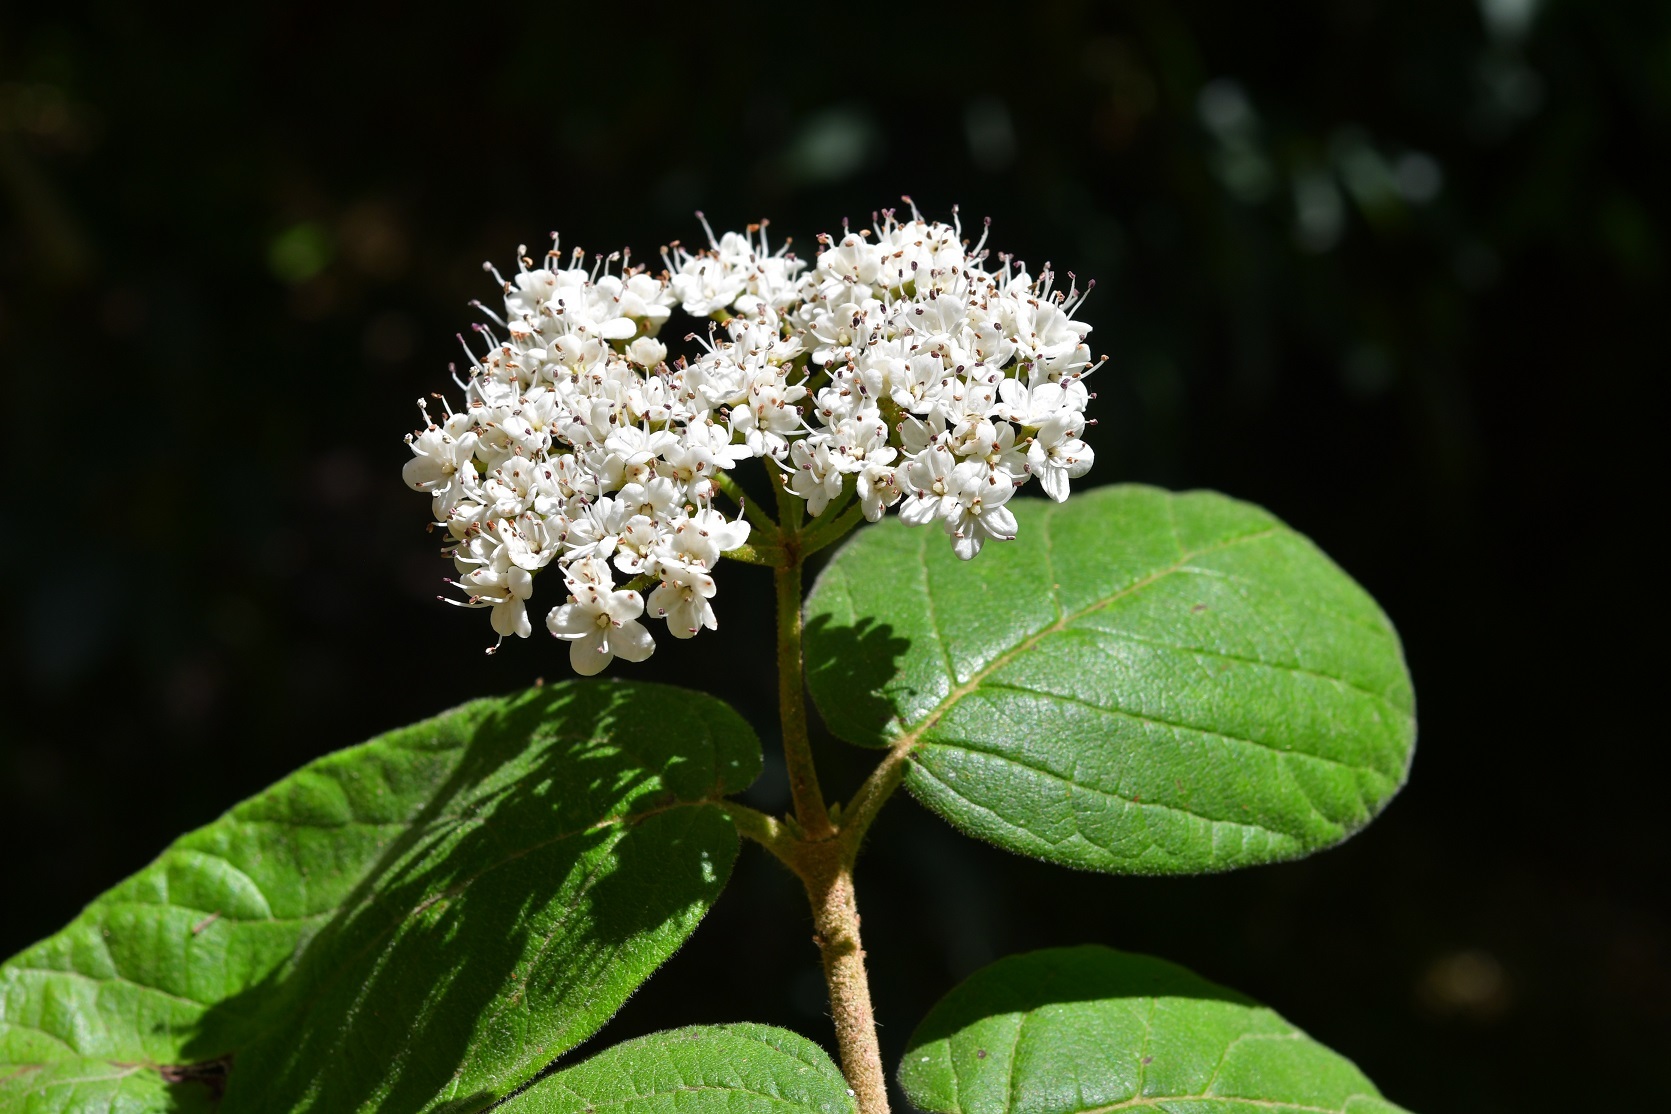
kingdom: Plantae
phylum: Tracheophyta
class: Magnoliopsida
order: Dipsacales
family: Viburnaceae
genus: Viburnum
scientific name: Viburnum jucundum
